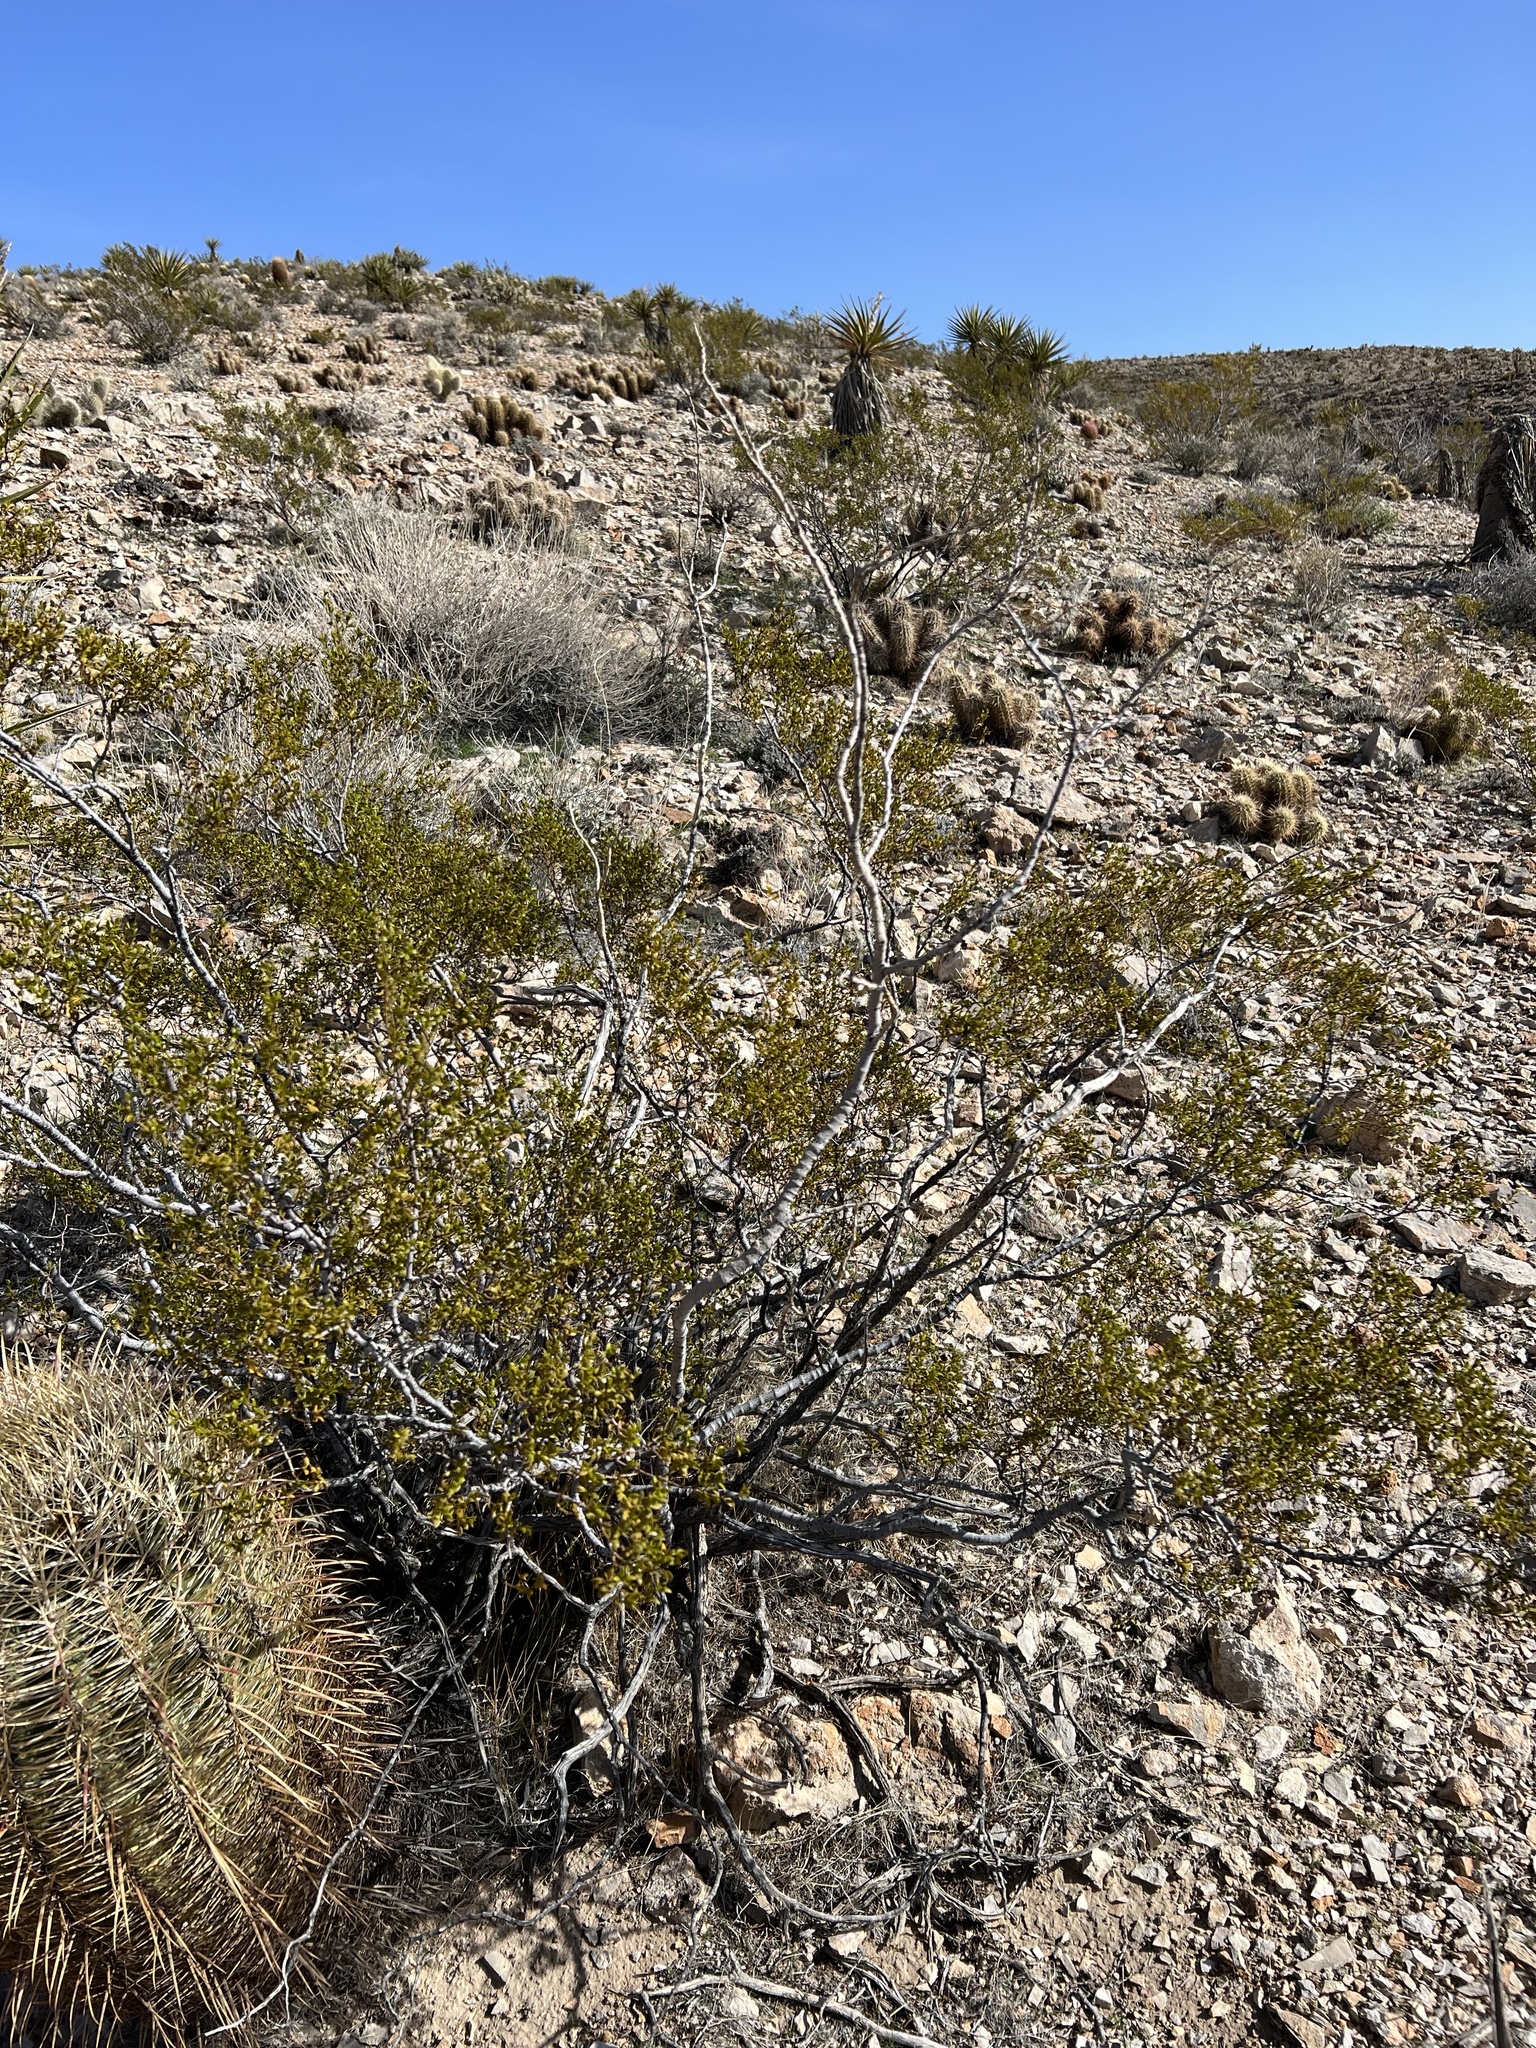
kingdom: Plantae
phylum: Tracheophyta
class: Magnoliopsida
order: Zygophyllales
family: Zygophyllaceae
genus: Larrea
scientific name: Larrea tridentata
